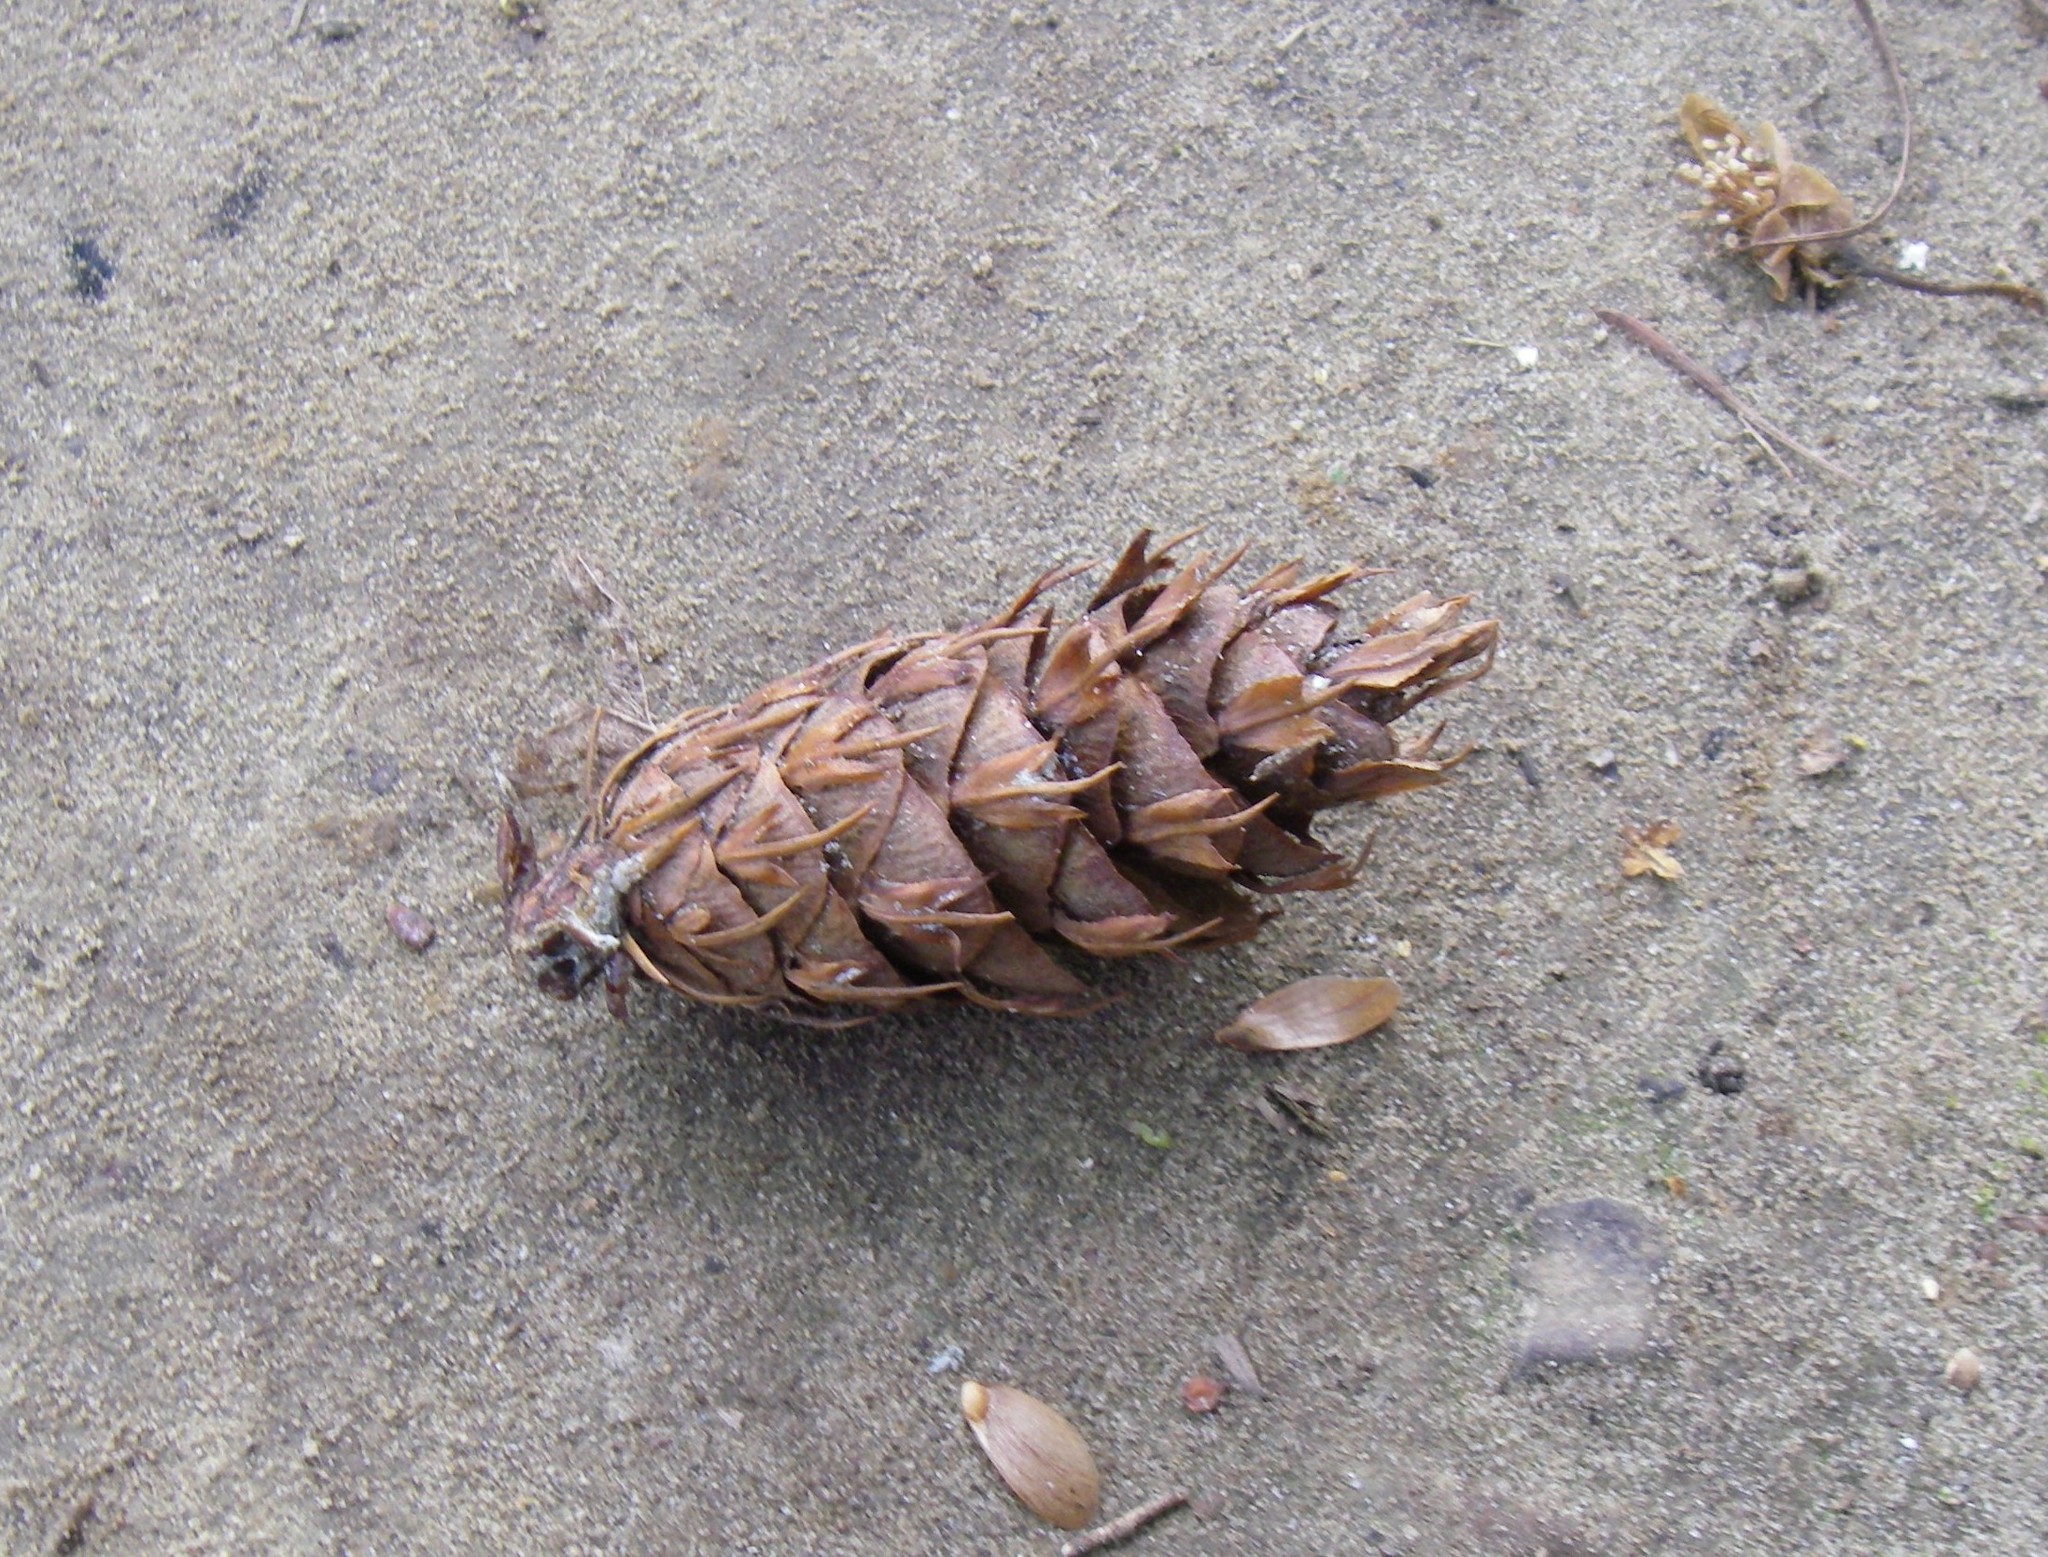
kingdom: Plantae
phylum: Tracheophyta
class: Pinopsida
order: Pinales
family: Pinaceae
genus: Pseudotsuga
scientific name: Pseudotsuga menziesii
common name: Douglas fir
